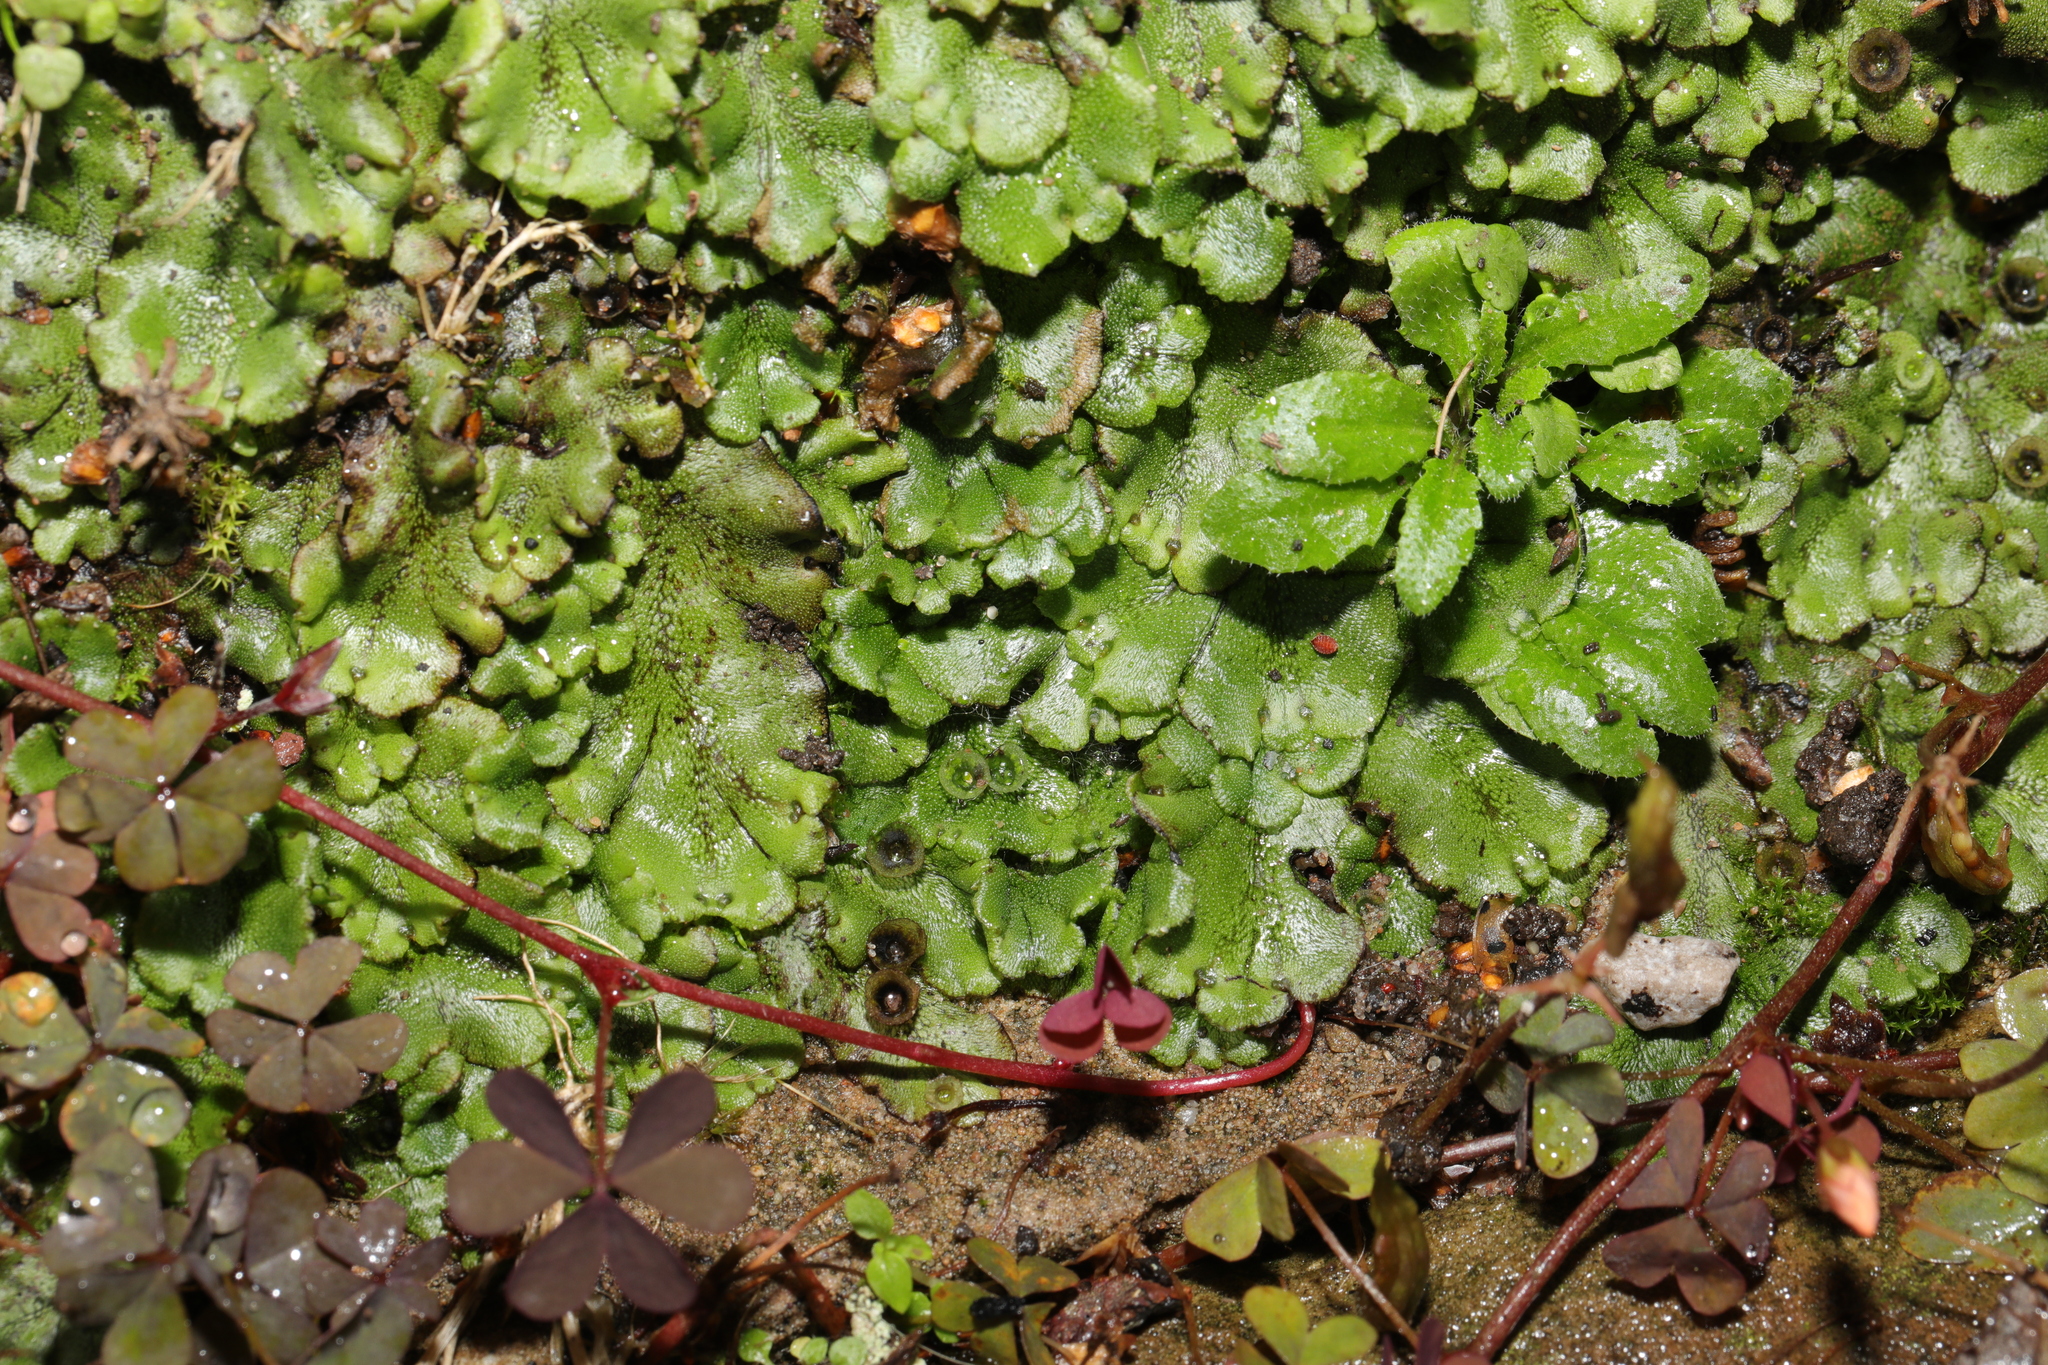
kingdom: Plantae
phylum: Marchantiophyta
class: Marchantiopsida
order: Marchantiales
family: Marchantiaceae
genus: Marchantia
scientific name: Marchantia polymorpha
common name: Common liverwort
